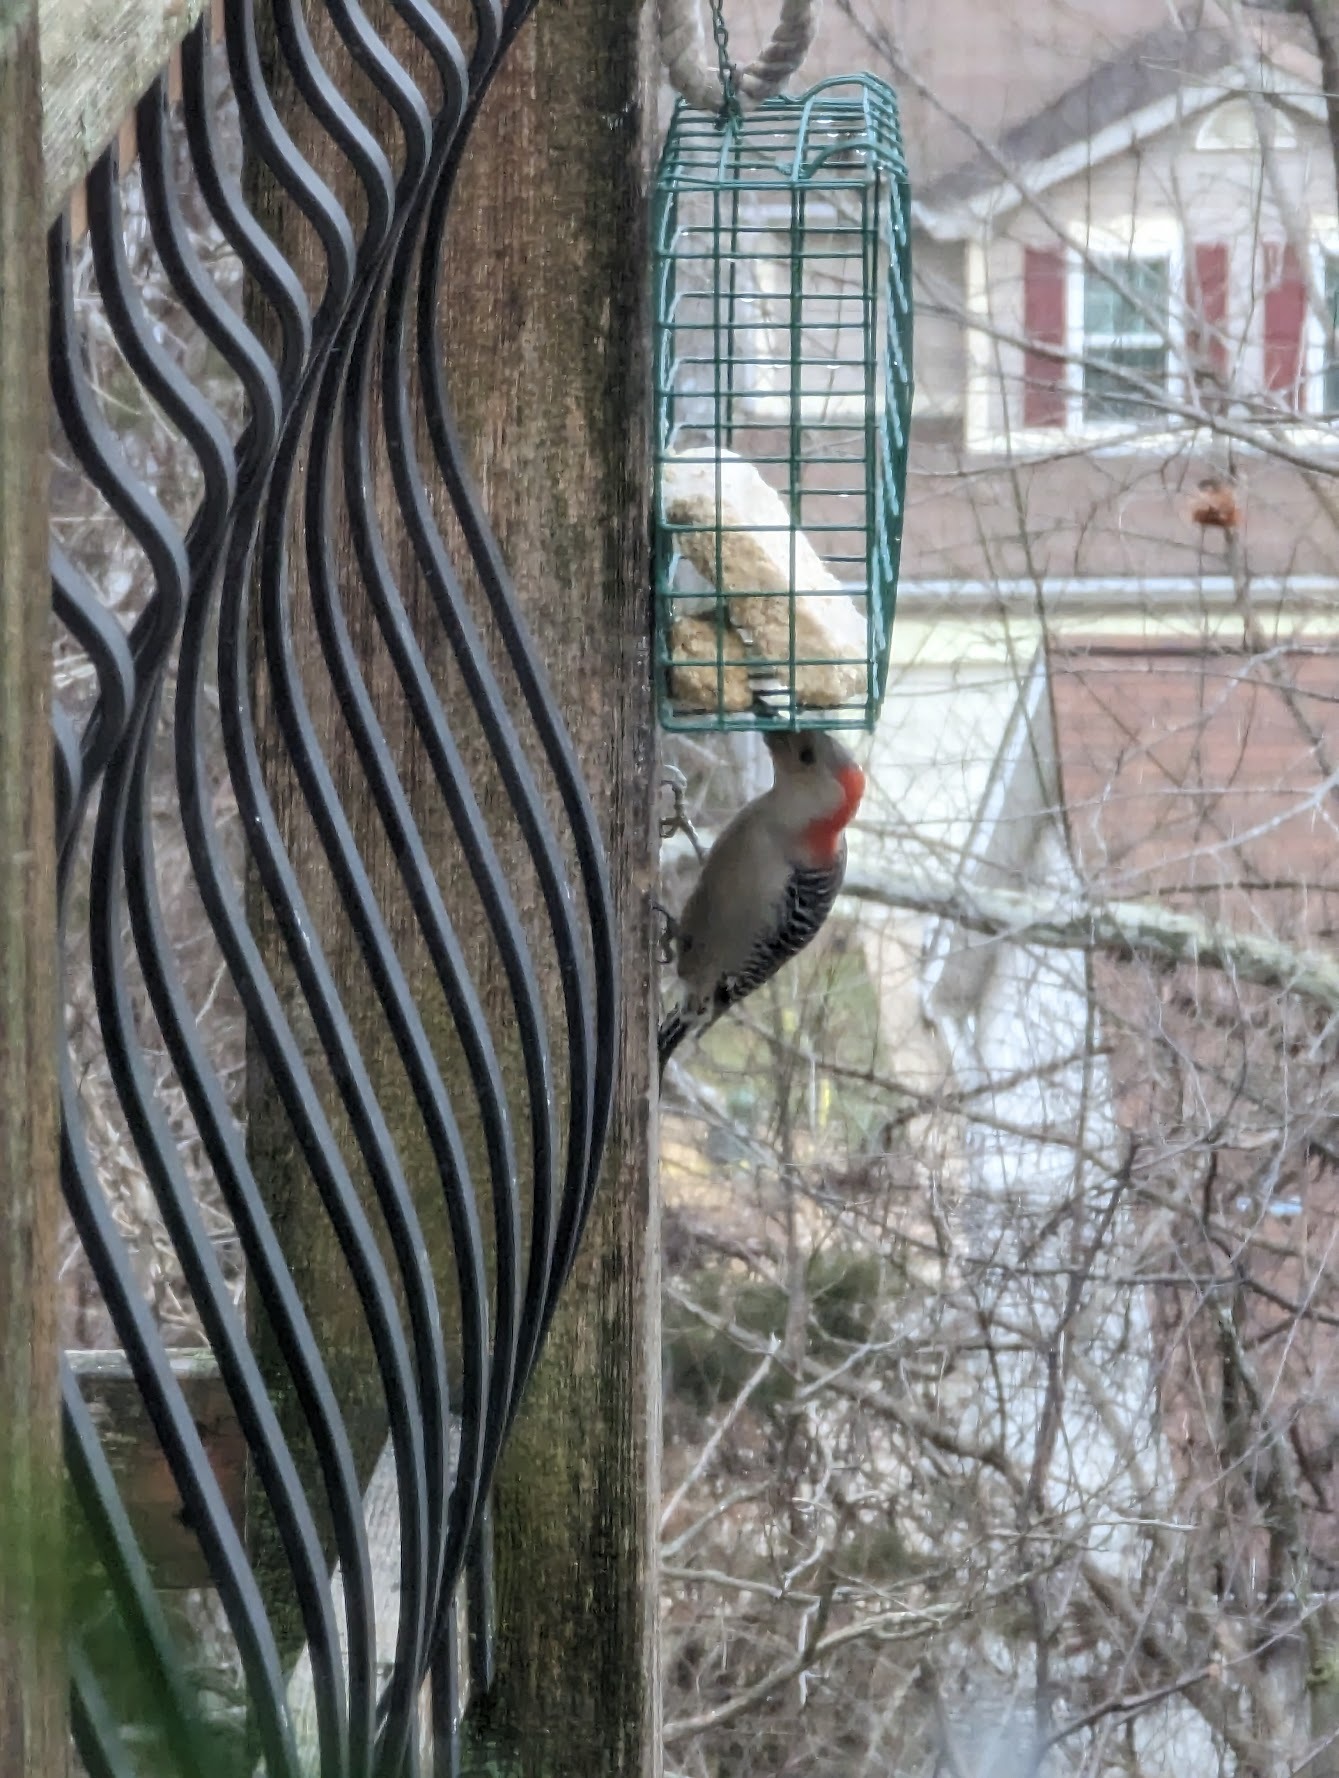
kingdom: Animalia
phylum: Chordata
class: Aves
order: Piciformes
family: Picidae
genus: Melanerpes
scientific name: Melanerpes carolinus
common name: Red-bellied woodpecker
